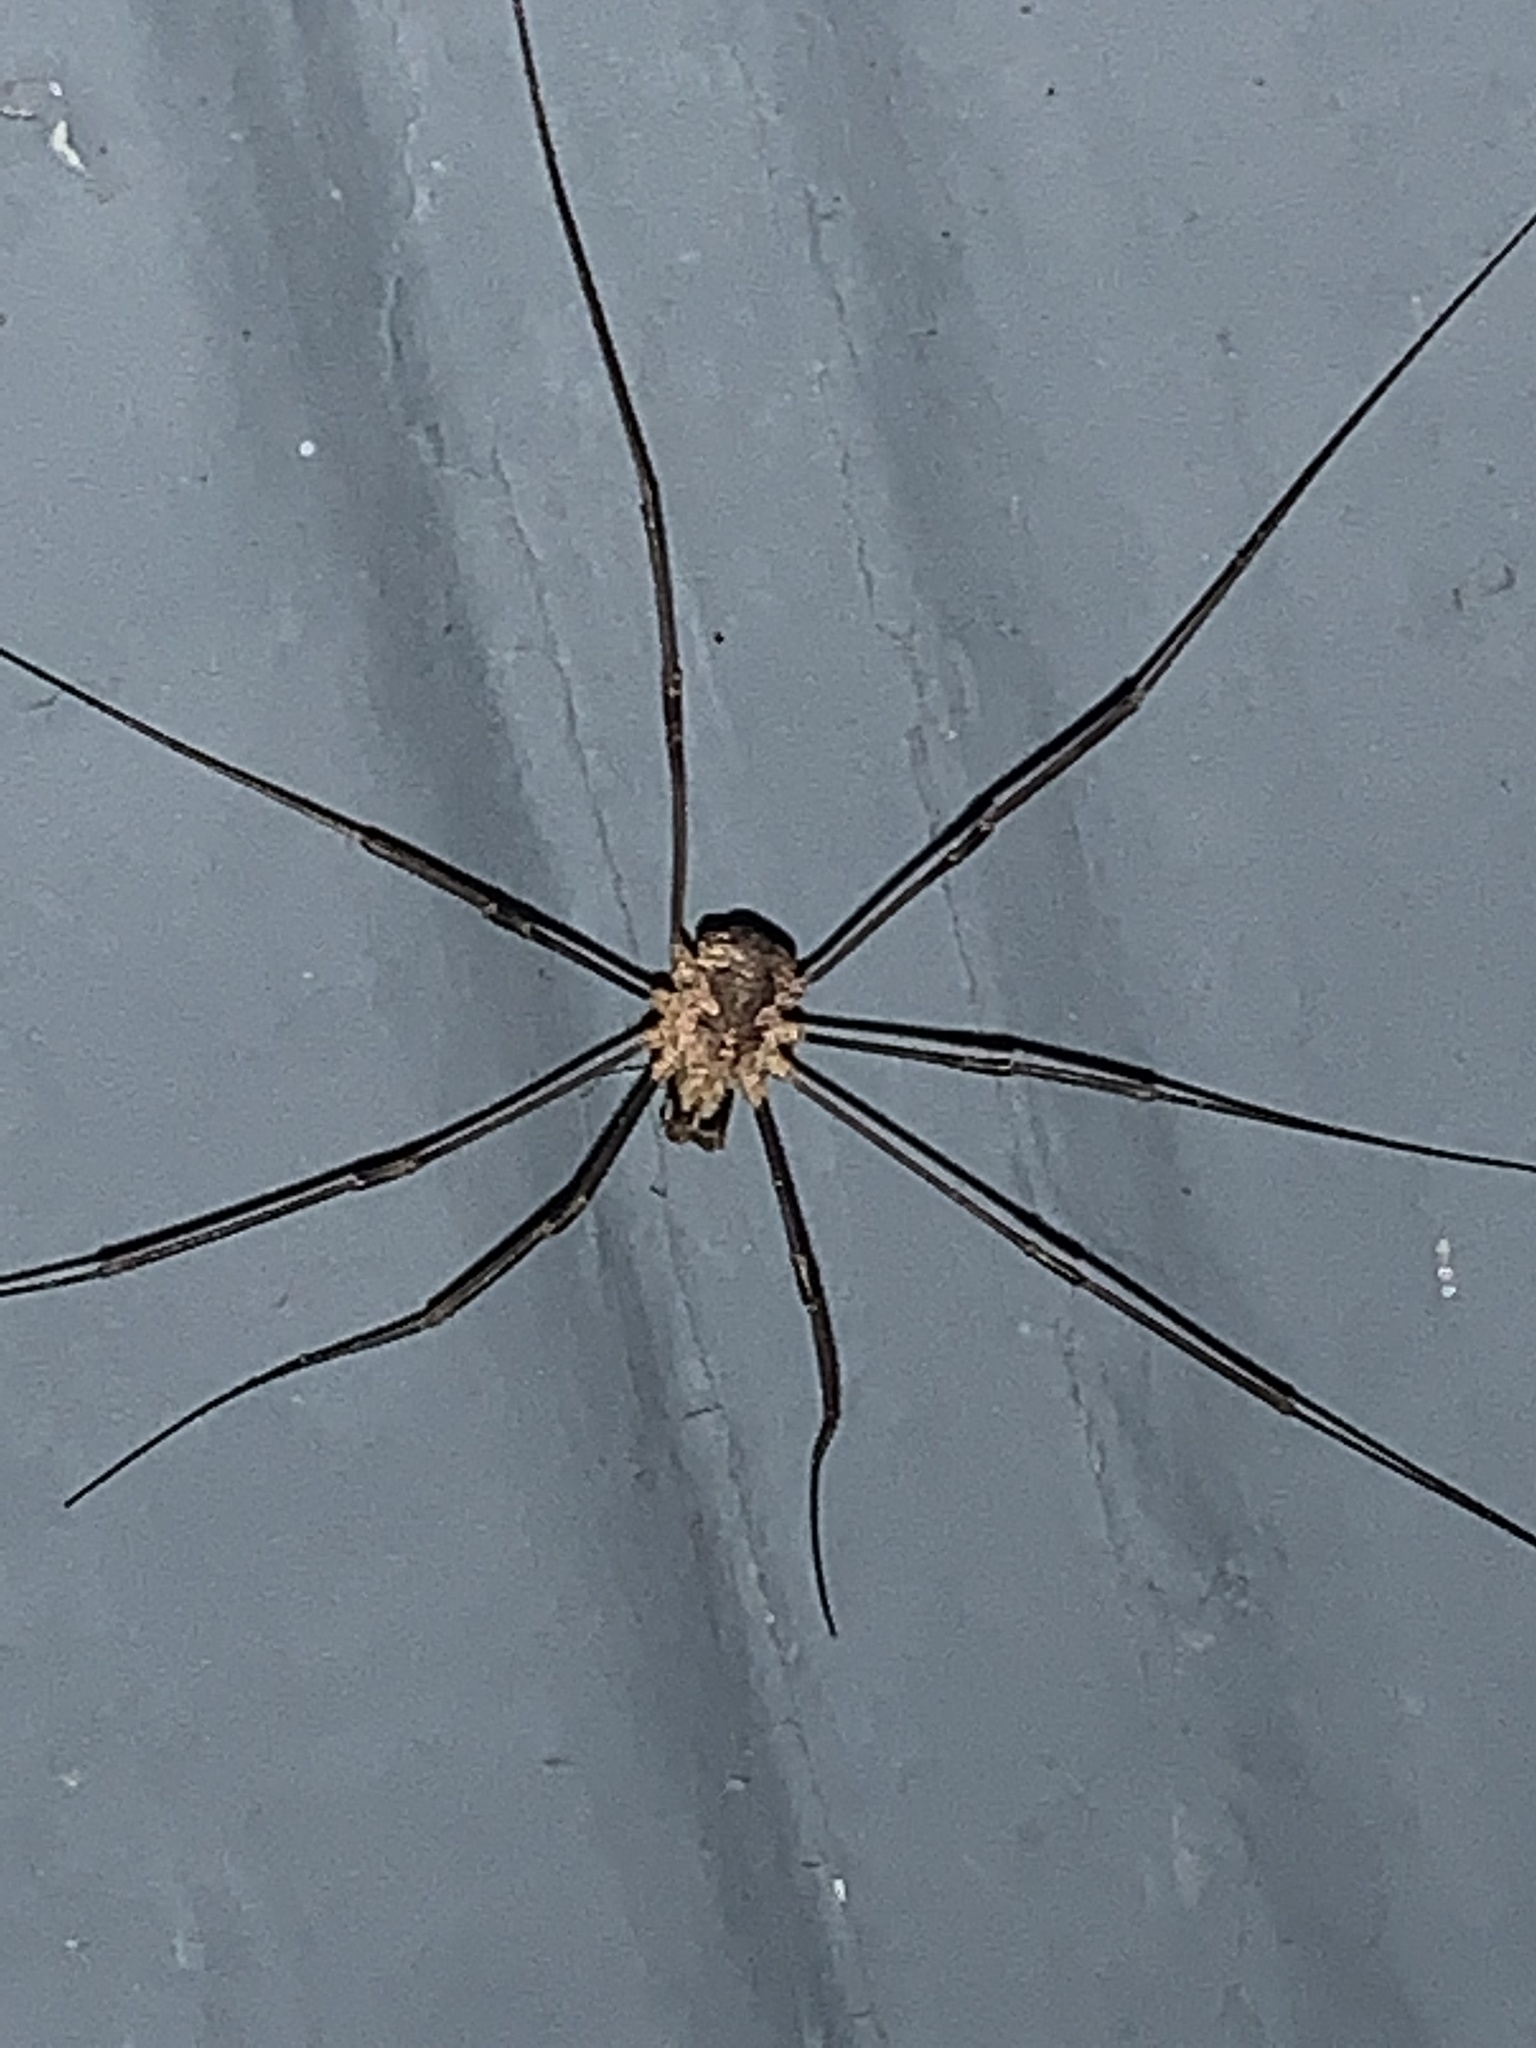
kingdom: Animalia
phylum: Arthropoda
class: Arachnida
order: Opiliones
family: Phalangiidae
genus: Phalangium
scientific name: Phalangium opilio
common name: Daddy longleg
